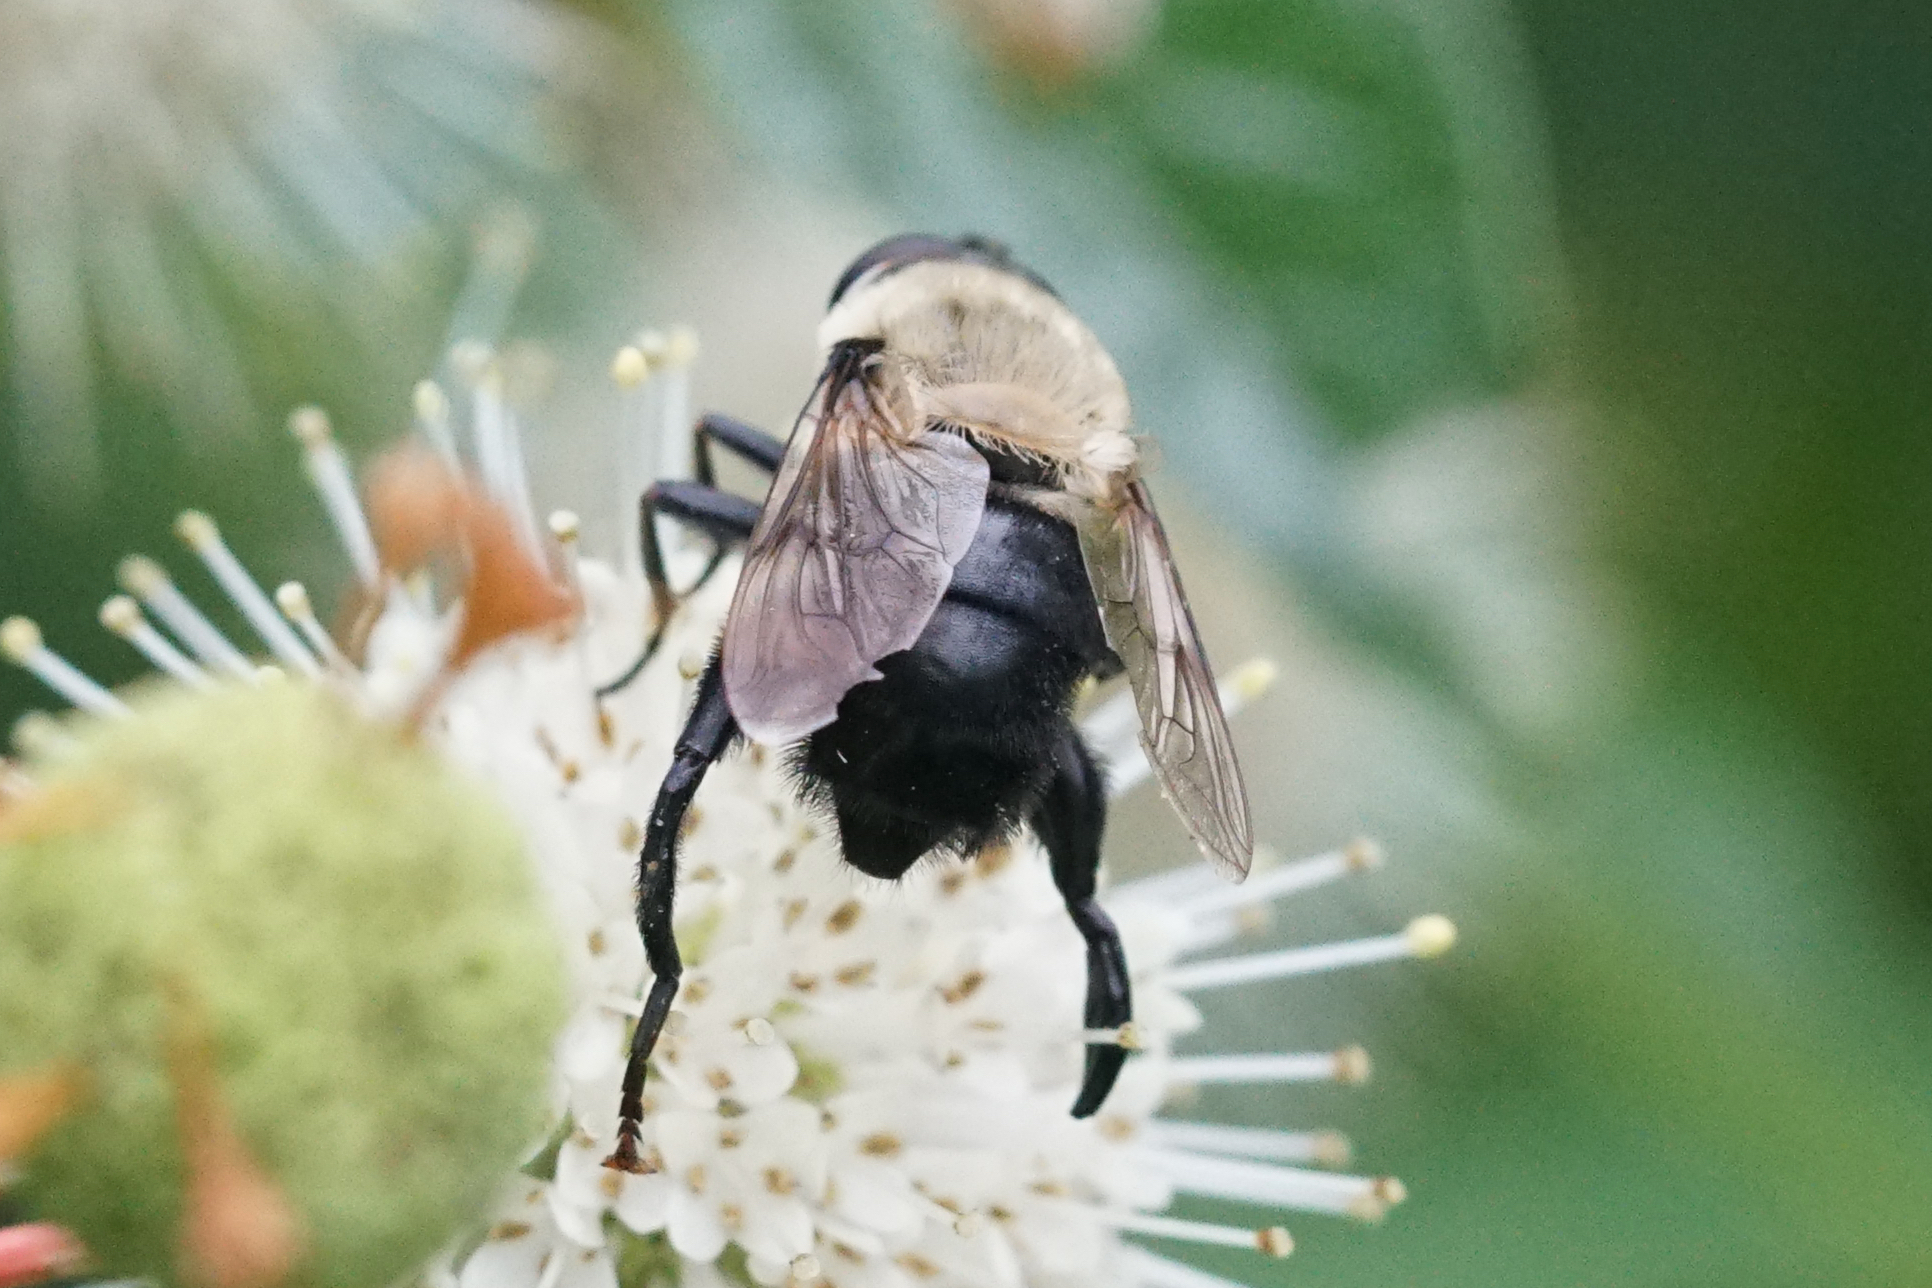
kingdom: Animalia
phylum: Arthropoda
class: Insecta
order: Diptera
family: Syrphidae
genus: Imatisma
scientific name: Imatisma bautias
